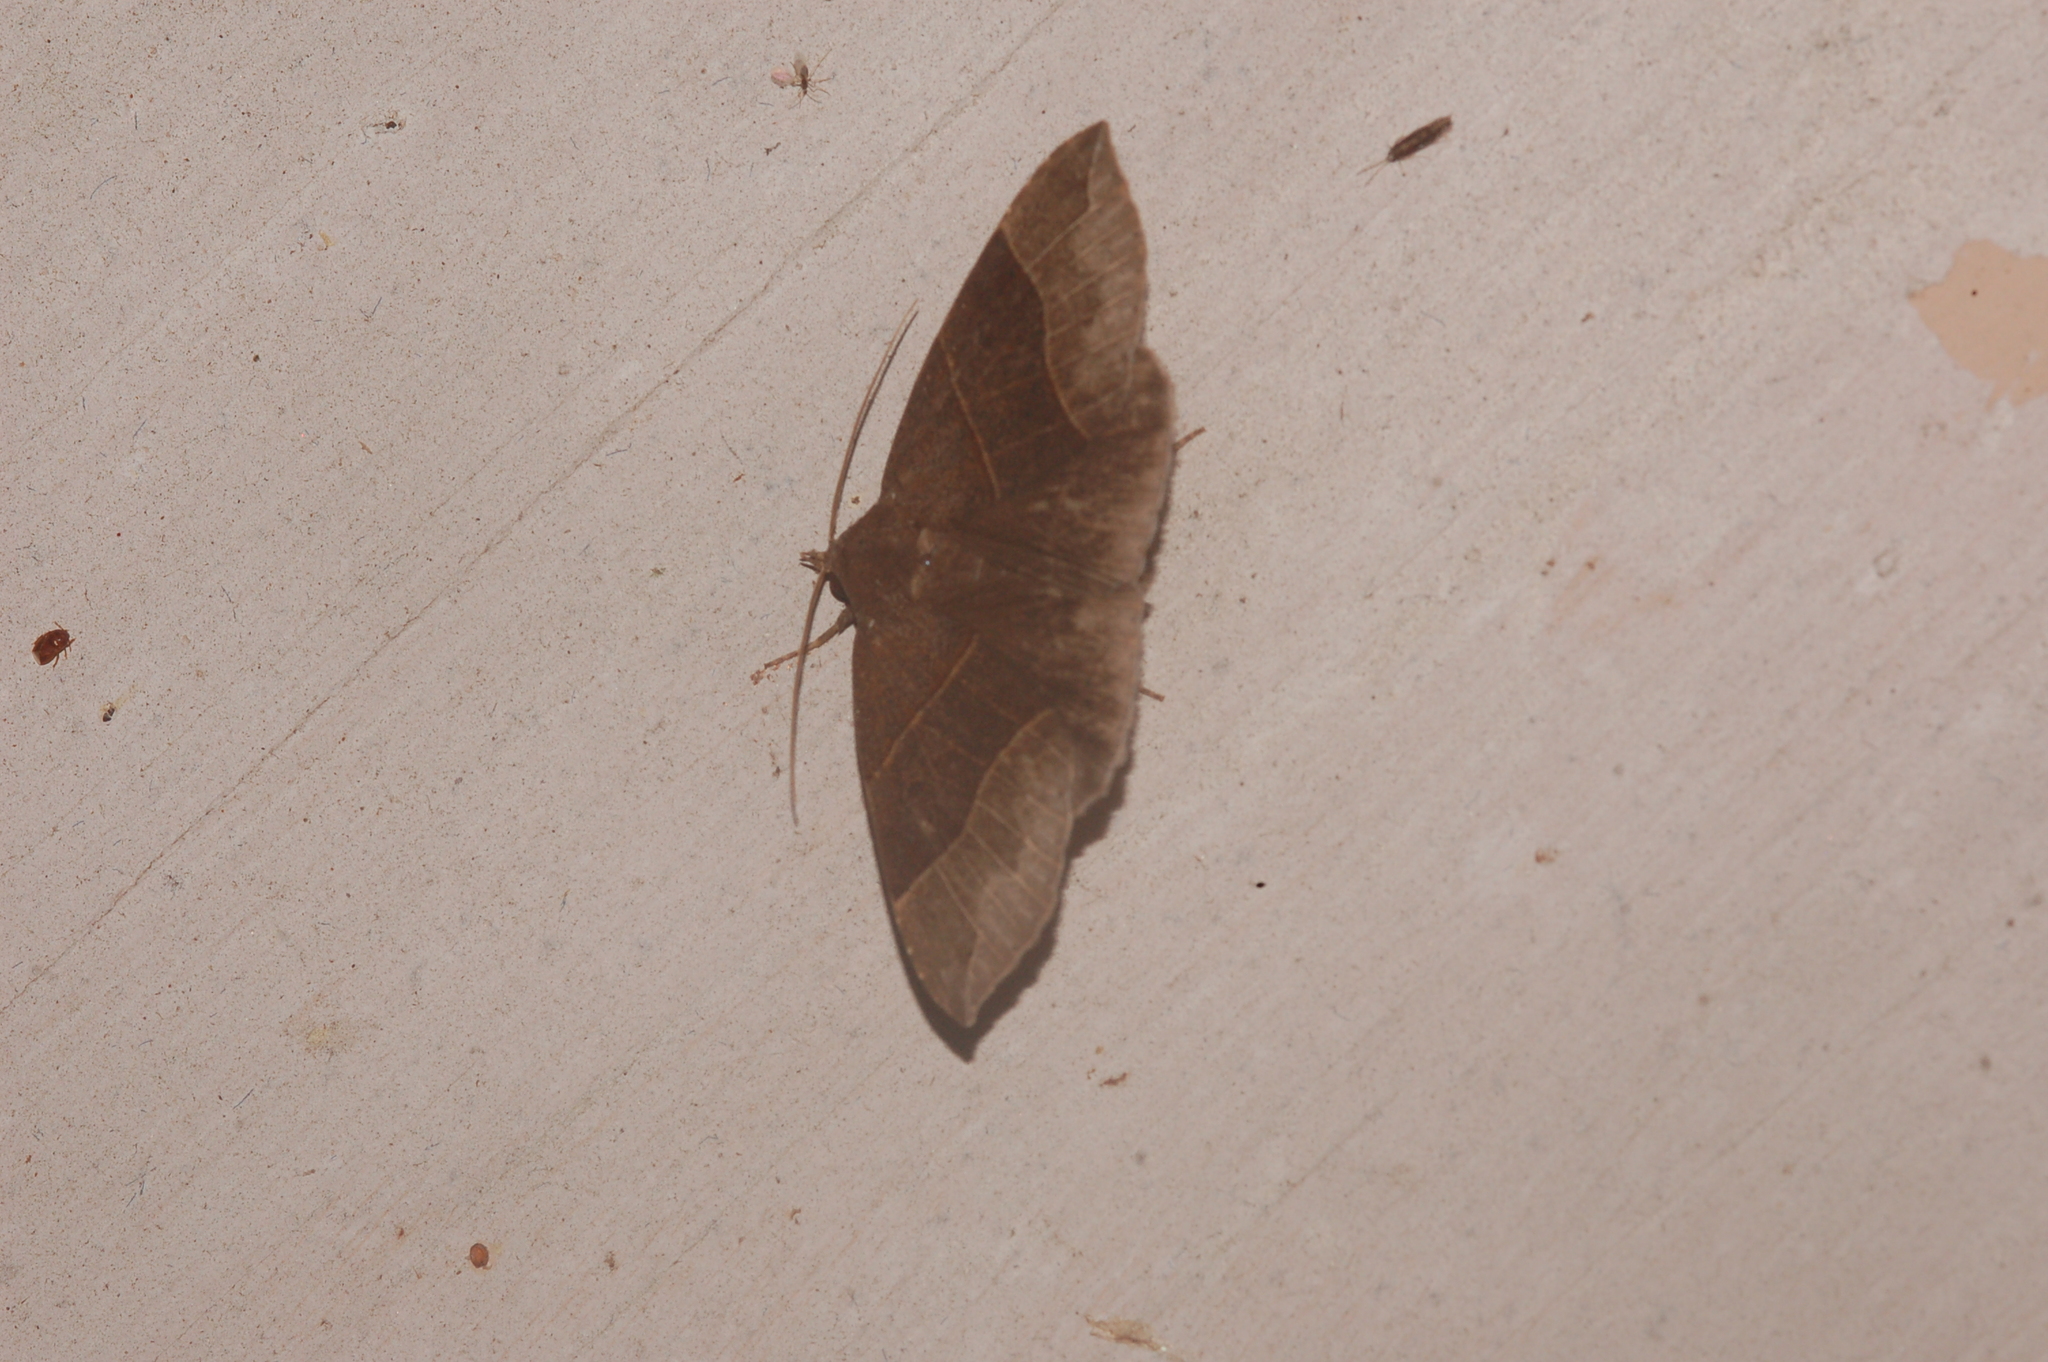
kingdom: Animalia
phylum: Arthropoda
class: Insecta
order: Lepidoptera
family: Erebidae
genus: Parallelia
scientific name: Parallelia bistriaris
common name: Maple looper moth
